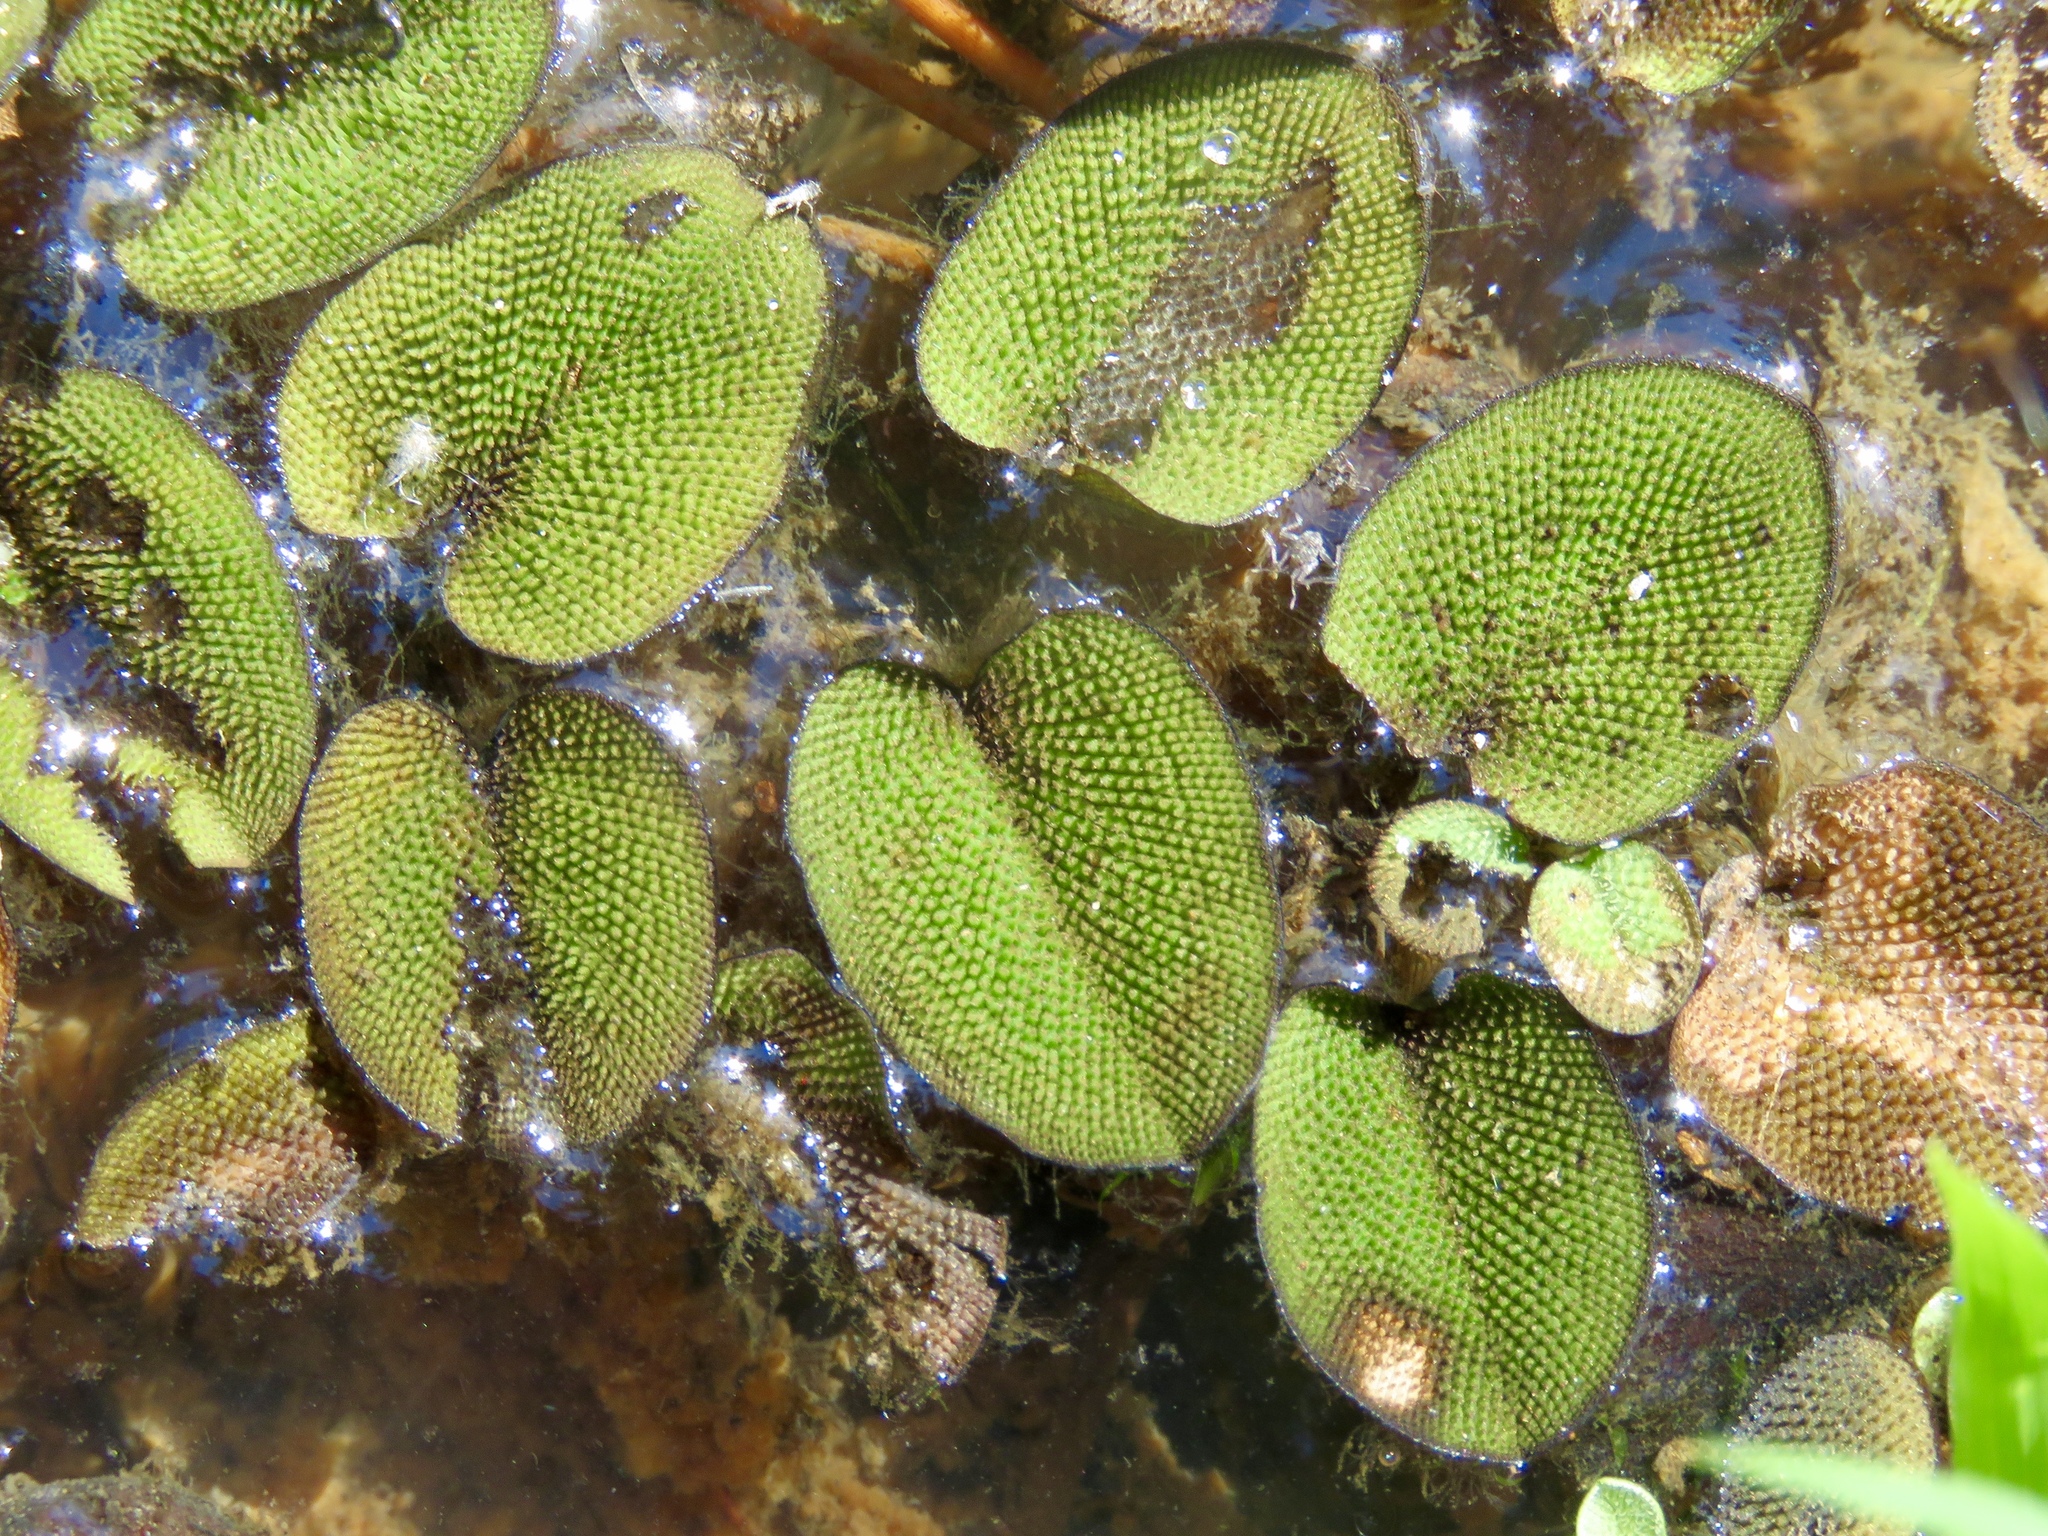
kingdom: Plantae
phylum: Tracheophyta
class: Polypodiopsida
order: Salviniales
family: Salviniaceae
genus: Salvinia
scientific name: Salvinia minima
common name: Water spangles
